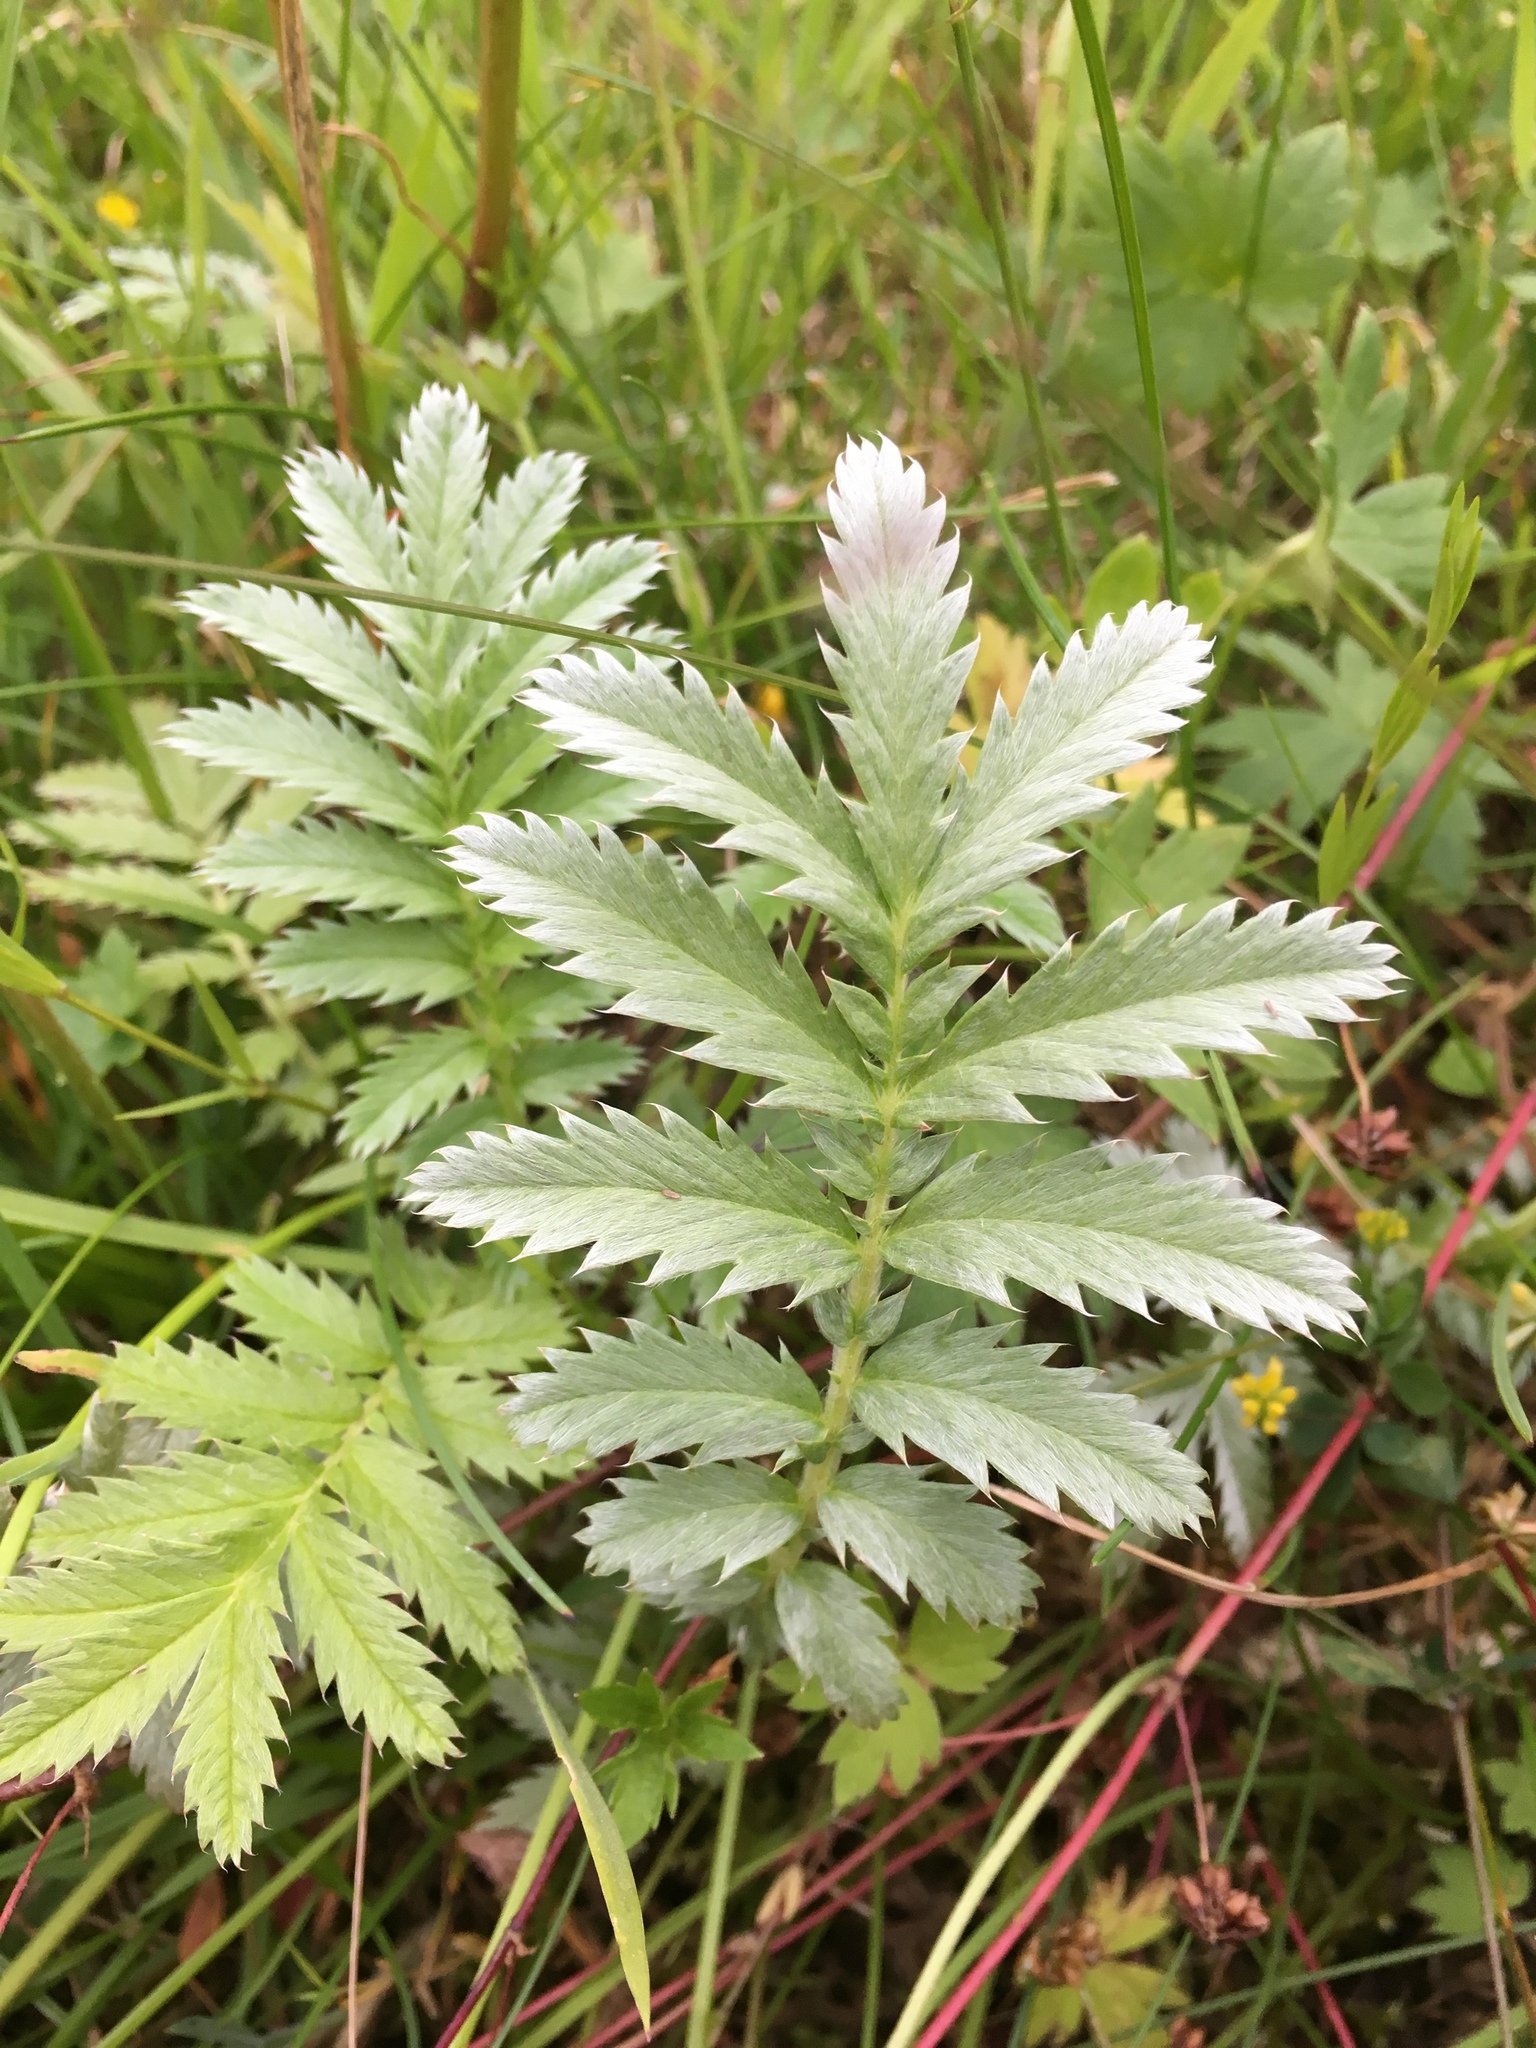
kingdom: Plantae
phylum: Tracheophyta
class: Magnoliopsida
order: Rosales
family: Rosaceae
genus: Argentina
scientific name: Argentina anserina
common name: Common silverweed
